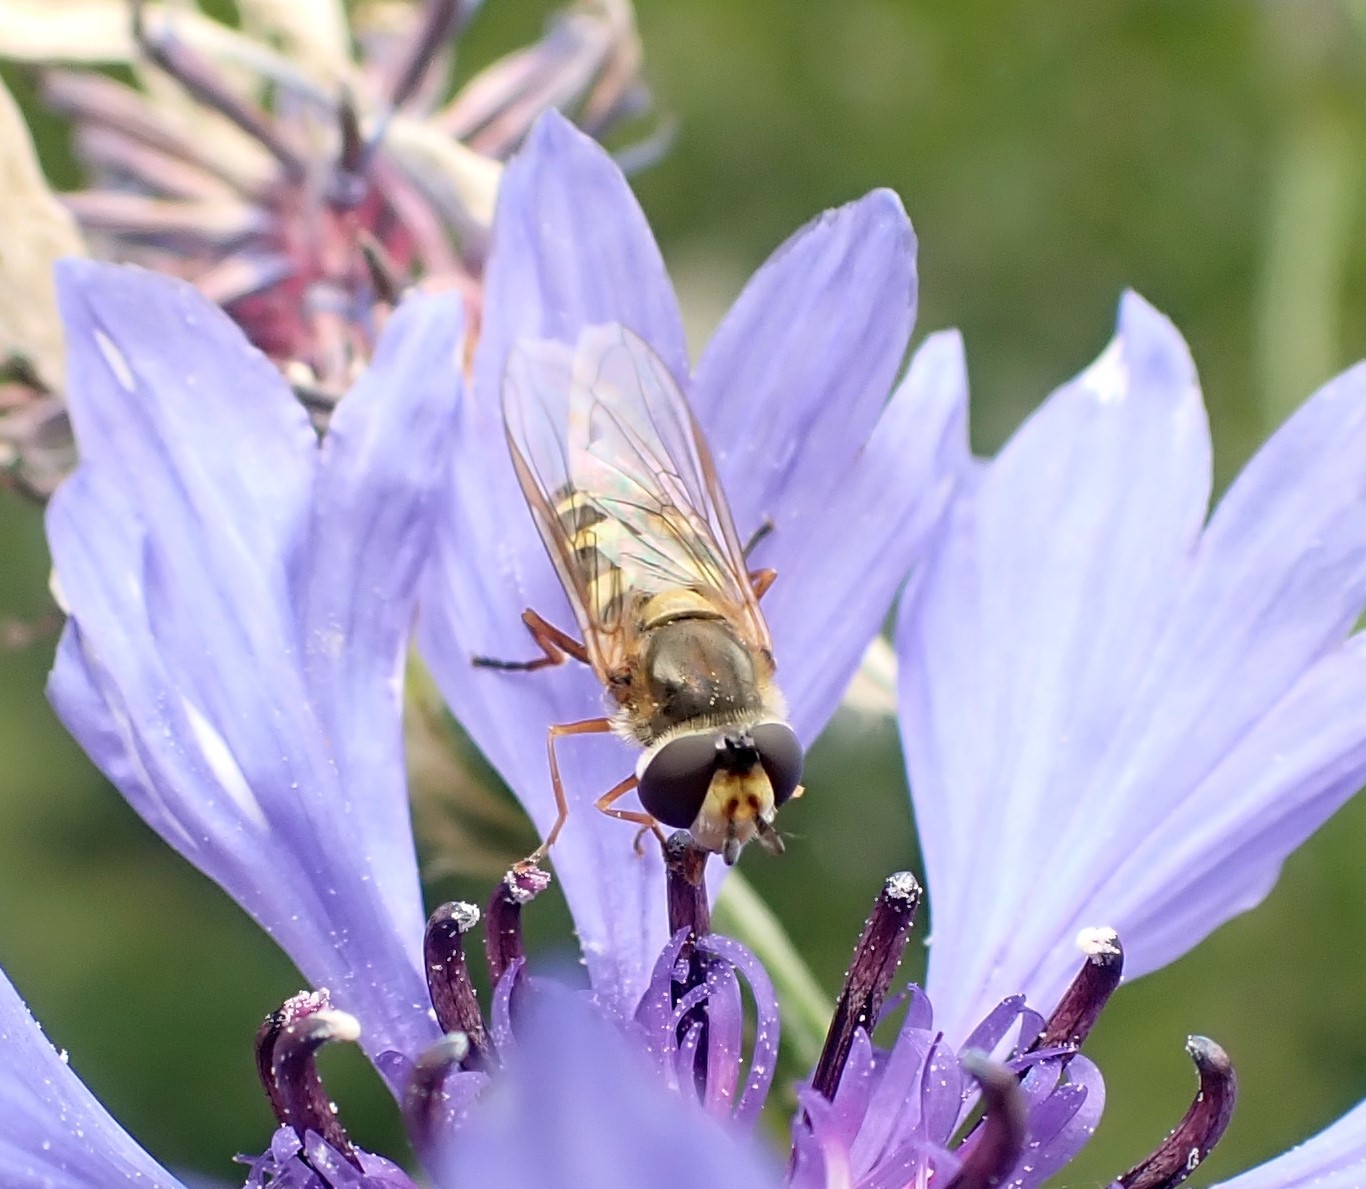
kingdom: Animalia
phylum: Arthropoda
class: Insecta
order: Diptera
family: Syrphidae
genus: Eupeodes
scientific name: Eupeodes corollae
